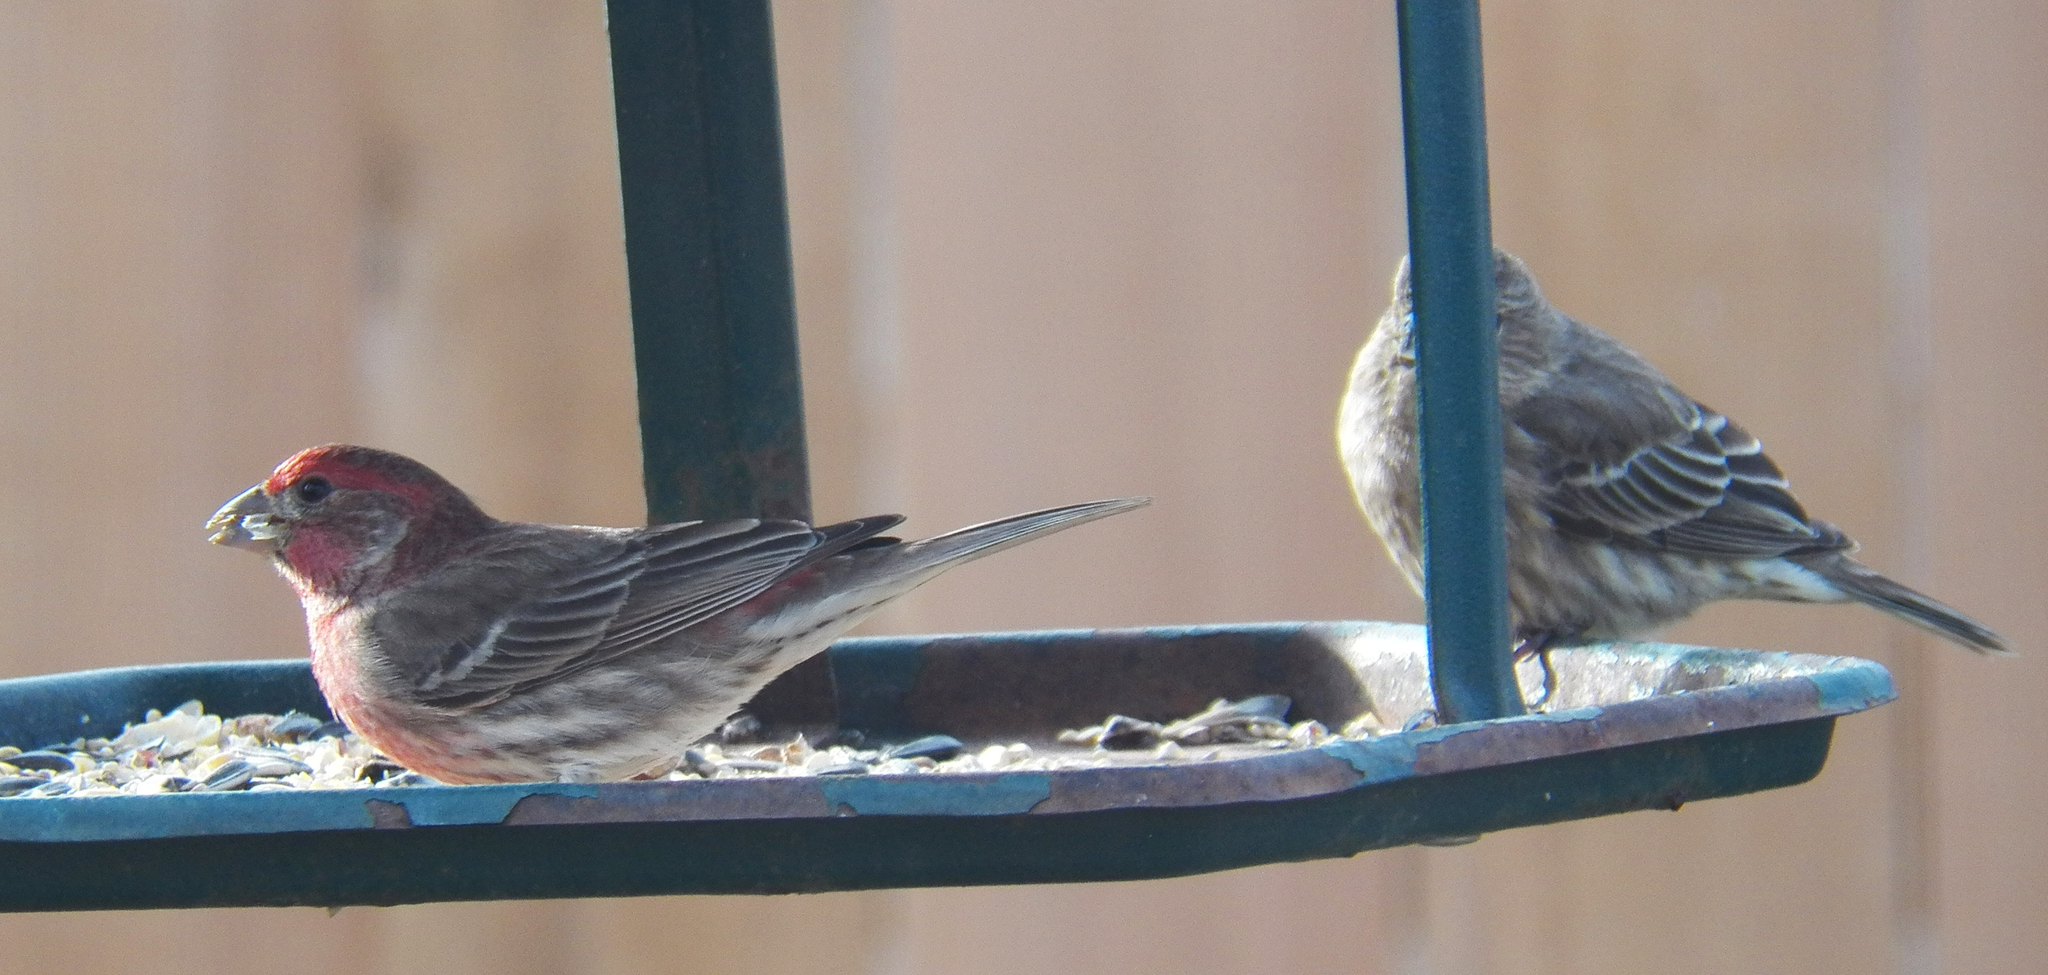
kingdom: Animalia
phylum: Chordata
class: Aves
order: Passeriformes
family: Fringillidae
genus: Haemorhous
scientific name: Haemorhous mexicanus
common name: House finch
